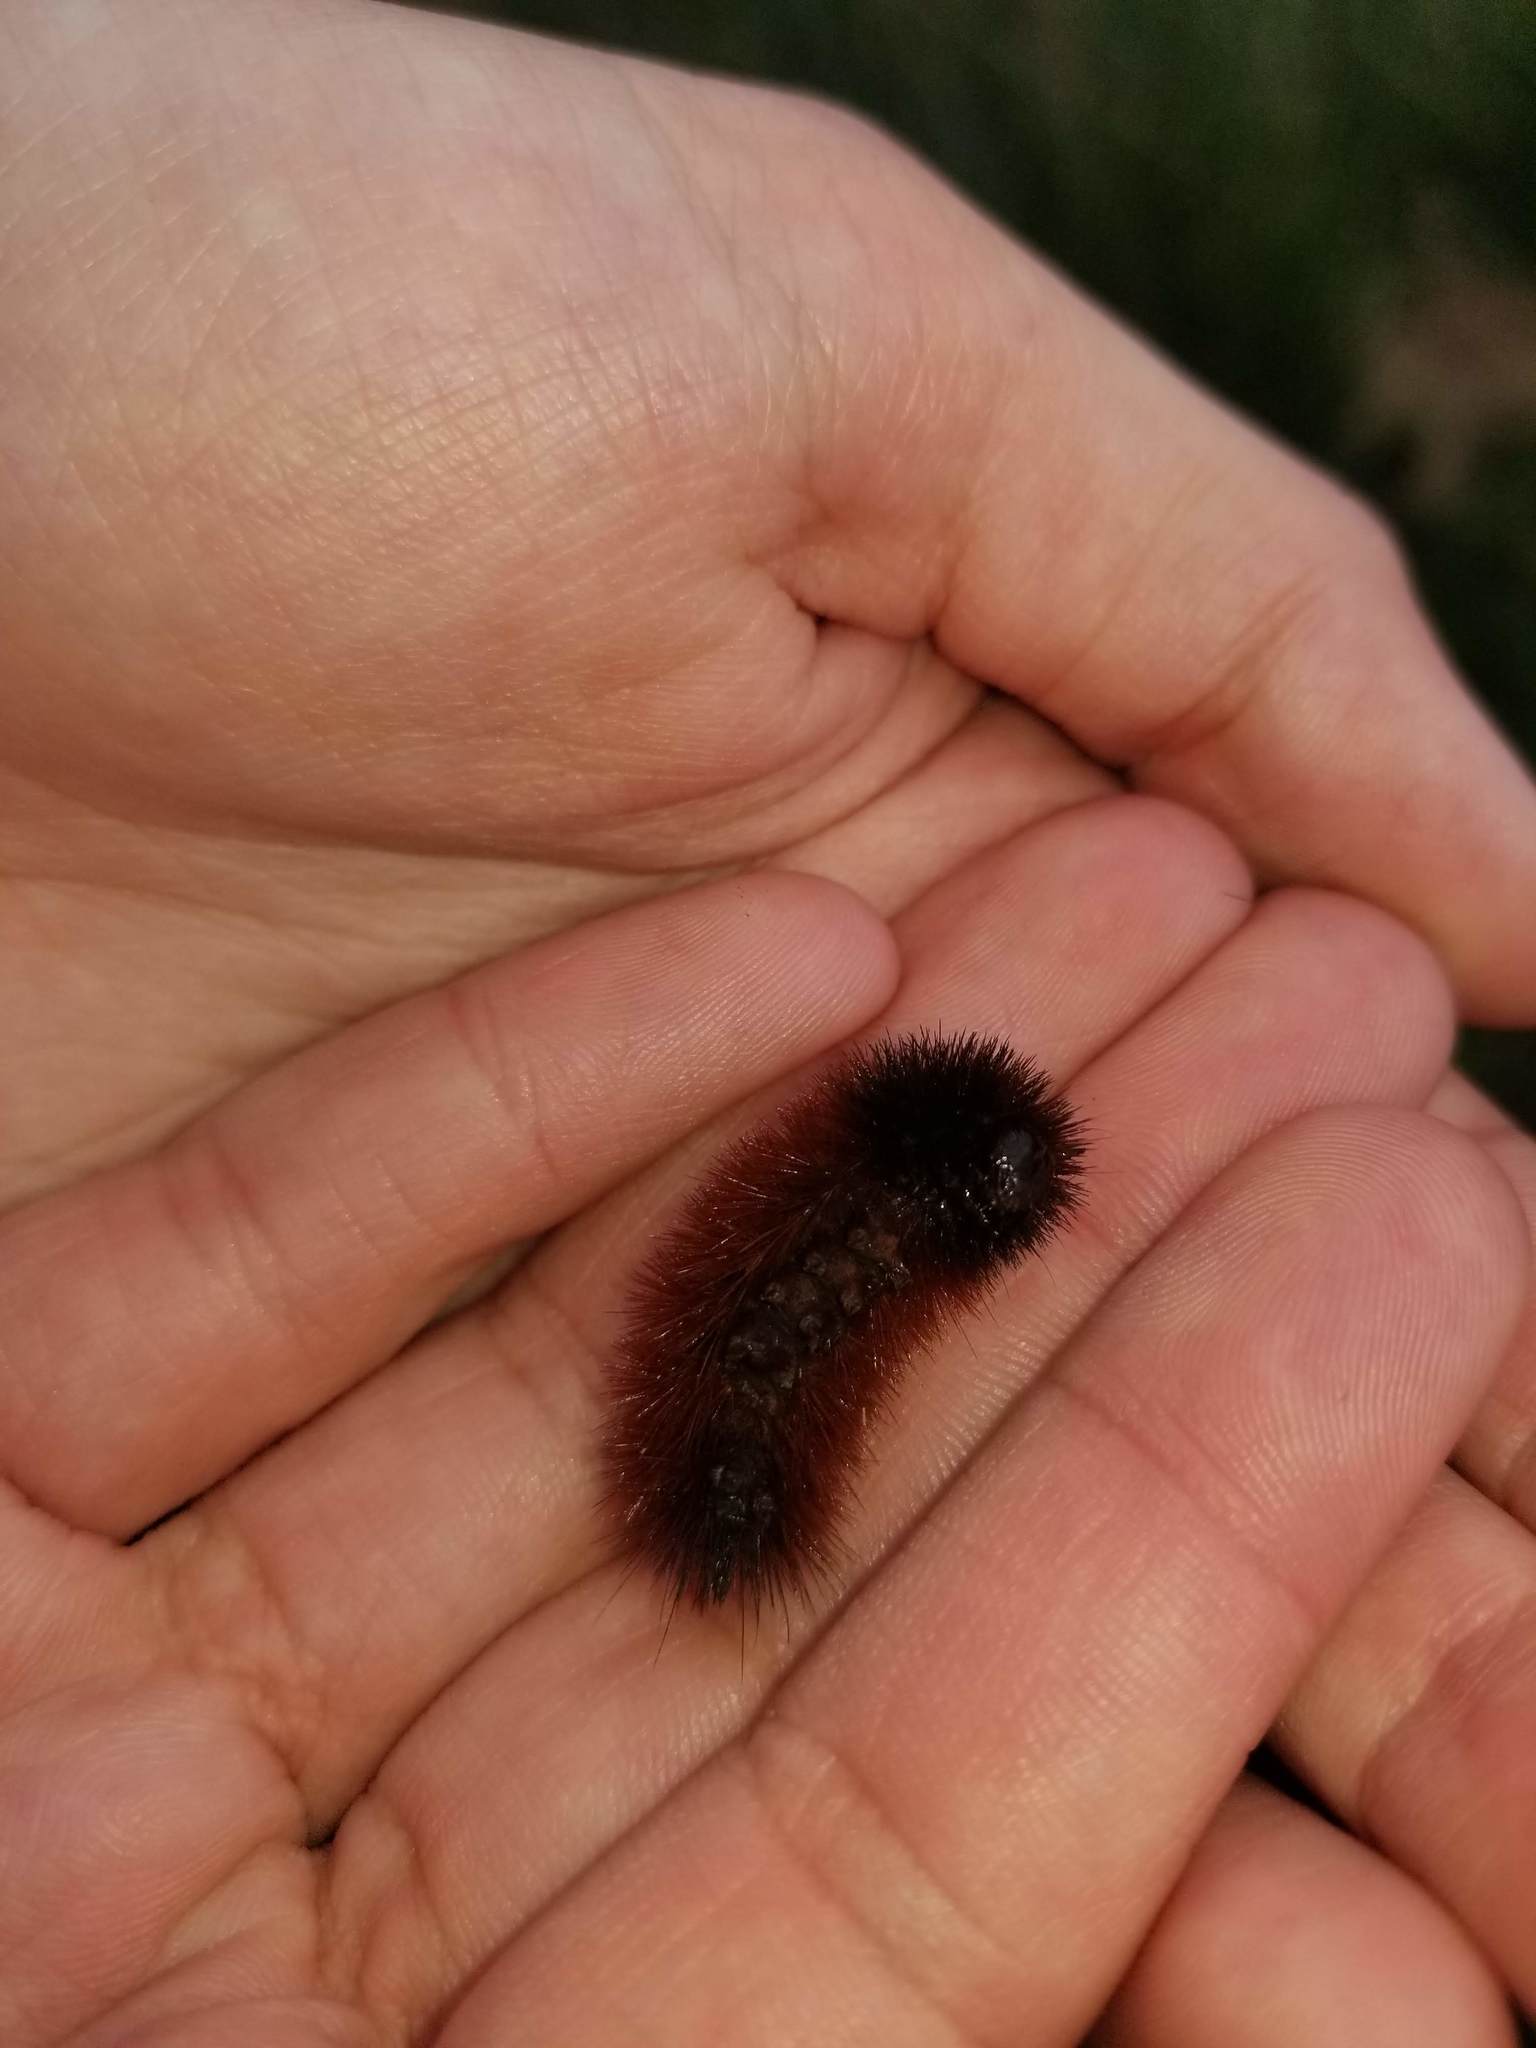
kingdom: Animalia
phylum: Arthropoda
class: Insecta
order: Lepidoptera
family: Erebidae
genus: Pyrrharctia
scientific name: Pyrrharctia isabella
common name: Isabella tiger moth
